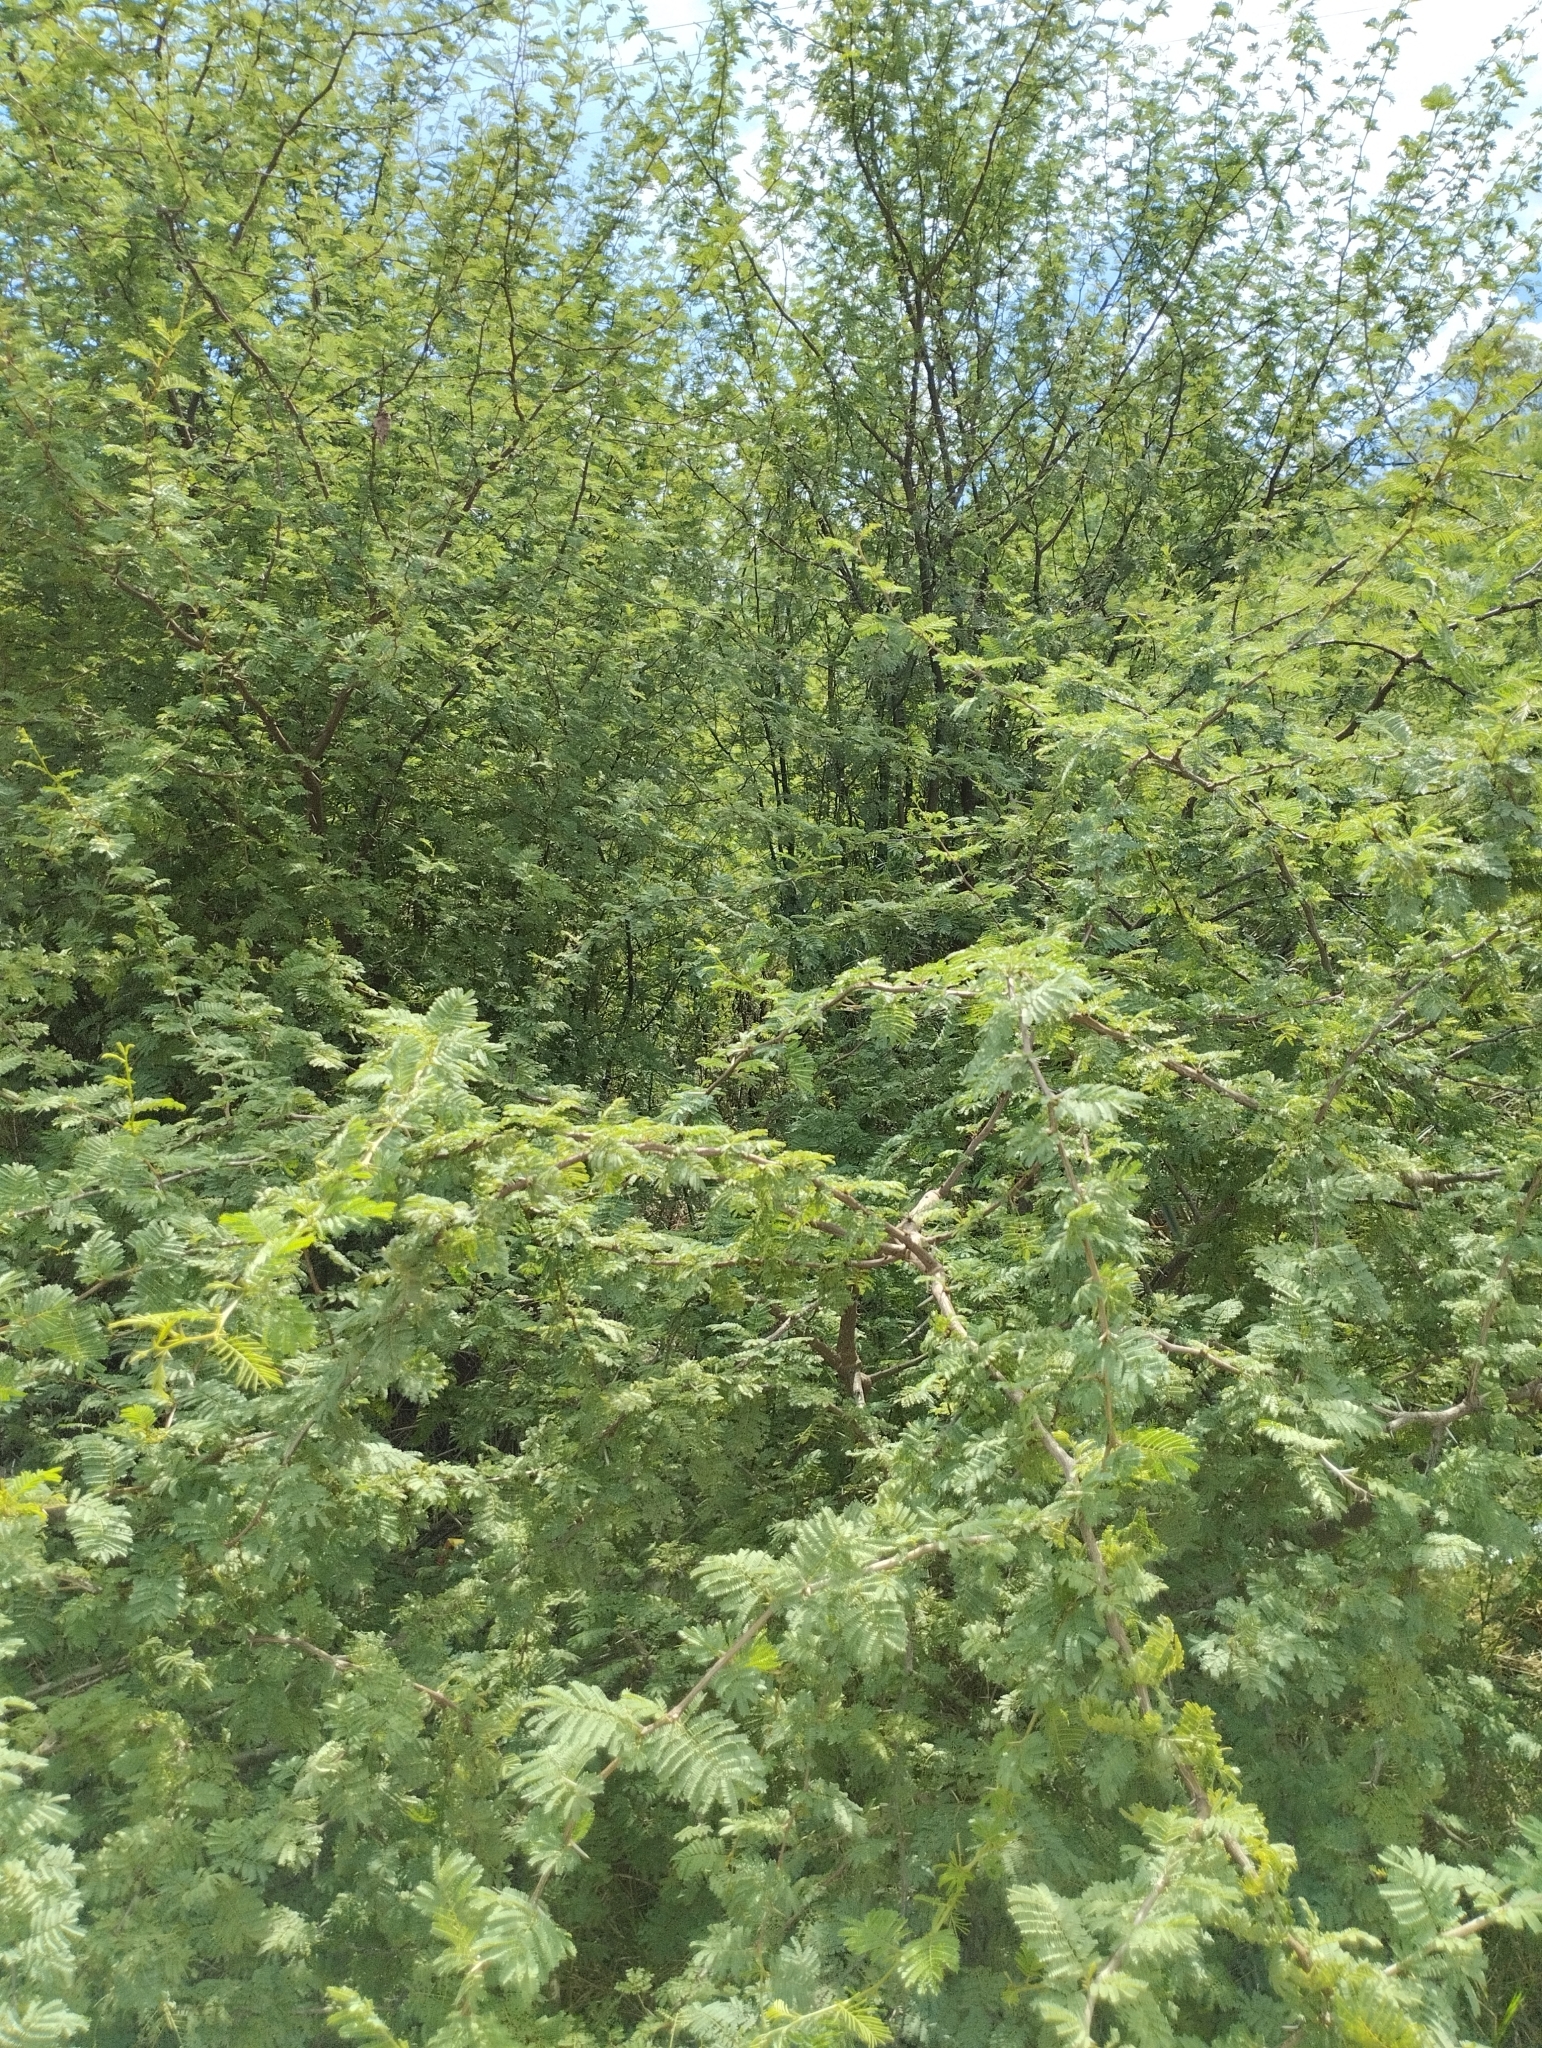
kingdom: Plantae
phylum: Tracheophyta
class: Magnoliopsida
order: Fabales
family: Fabaceae
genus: Vachellia
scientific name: Vachellia caven
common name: Roman cassie
